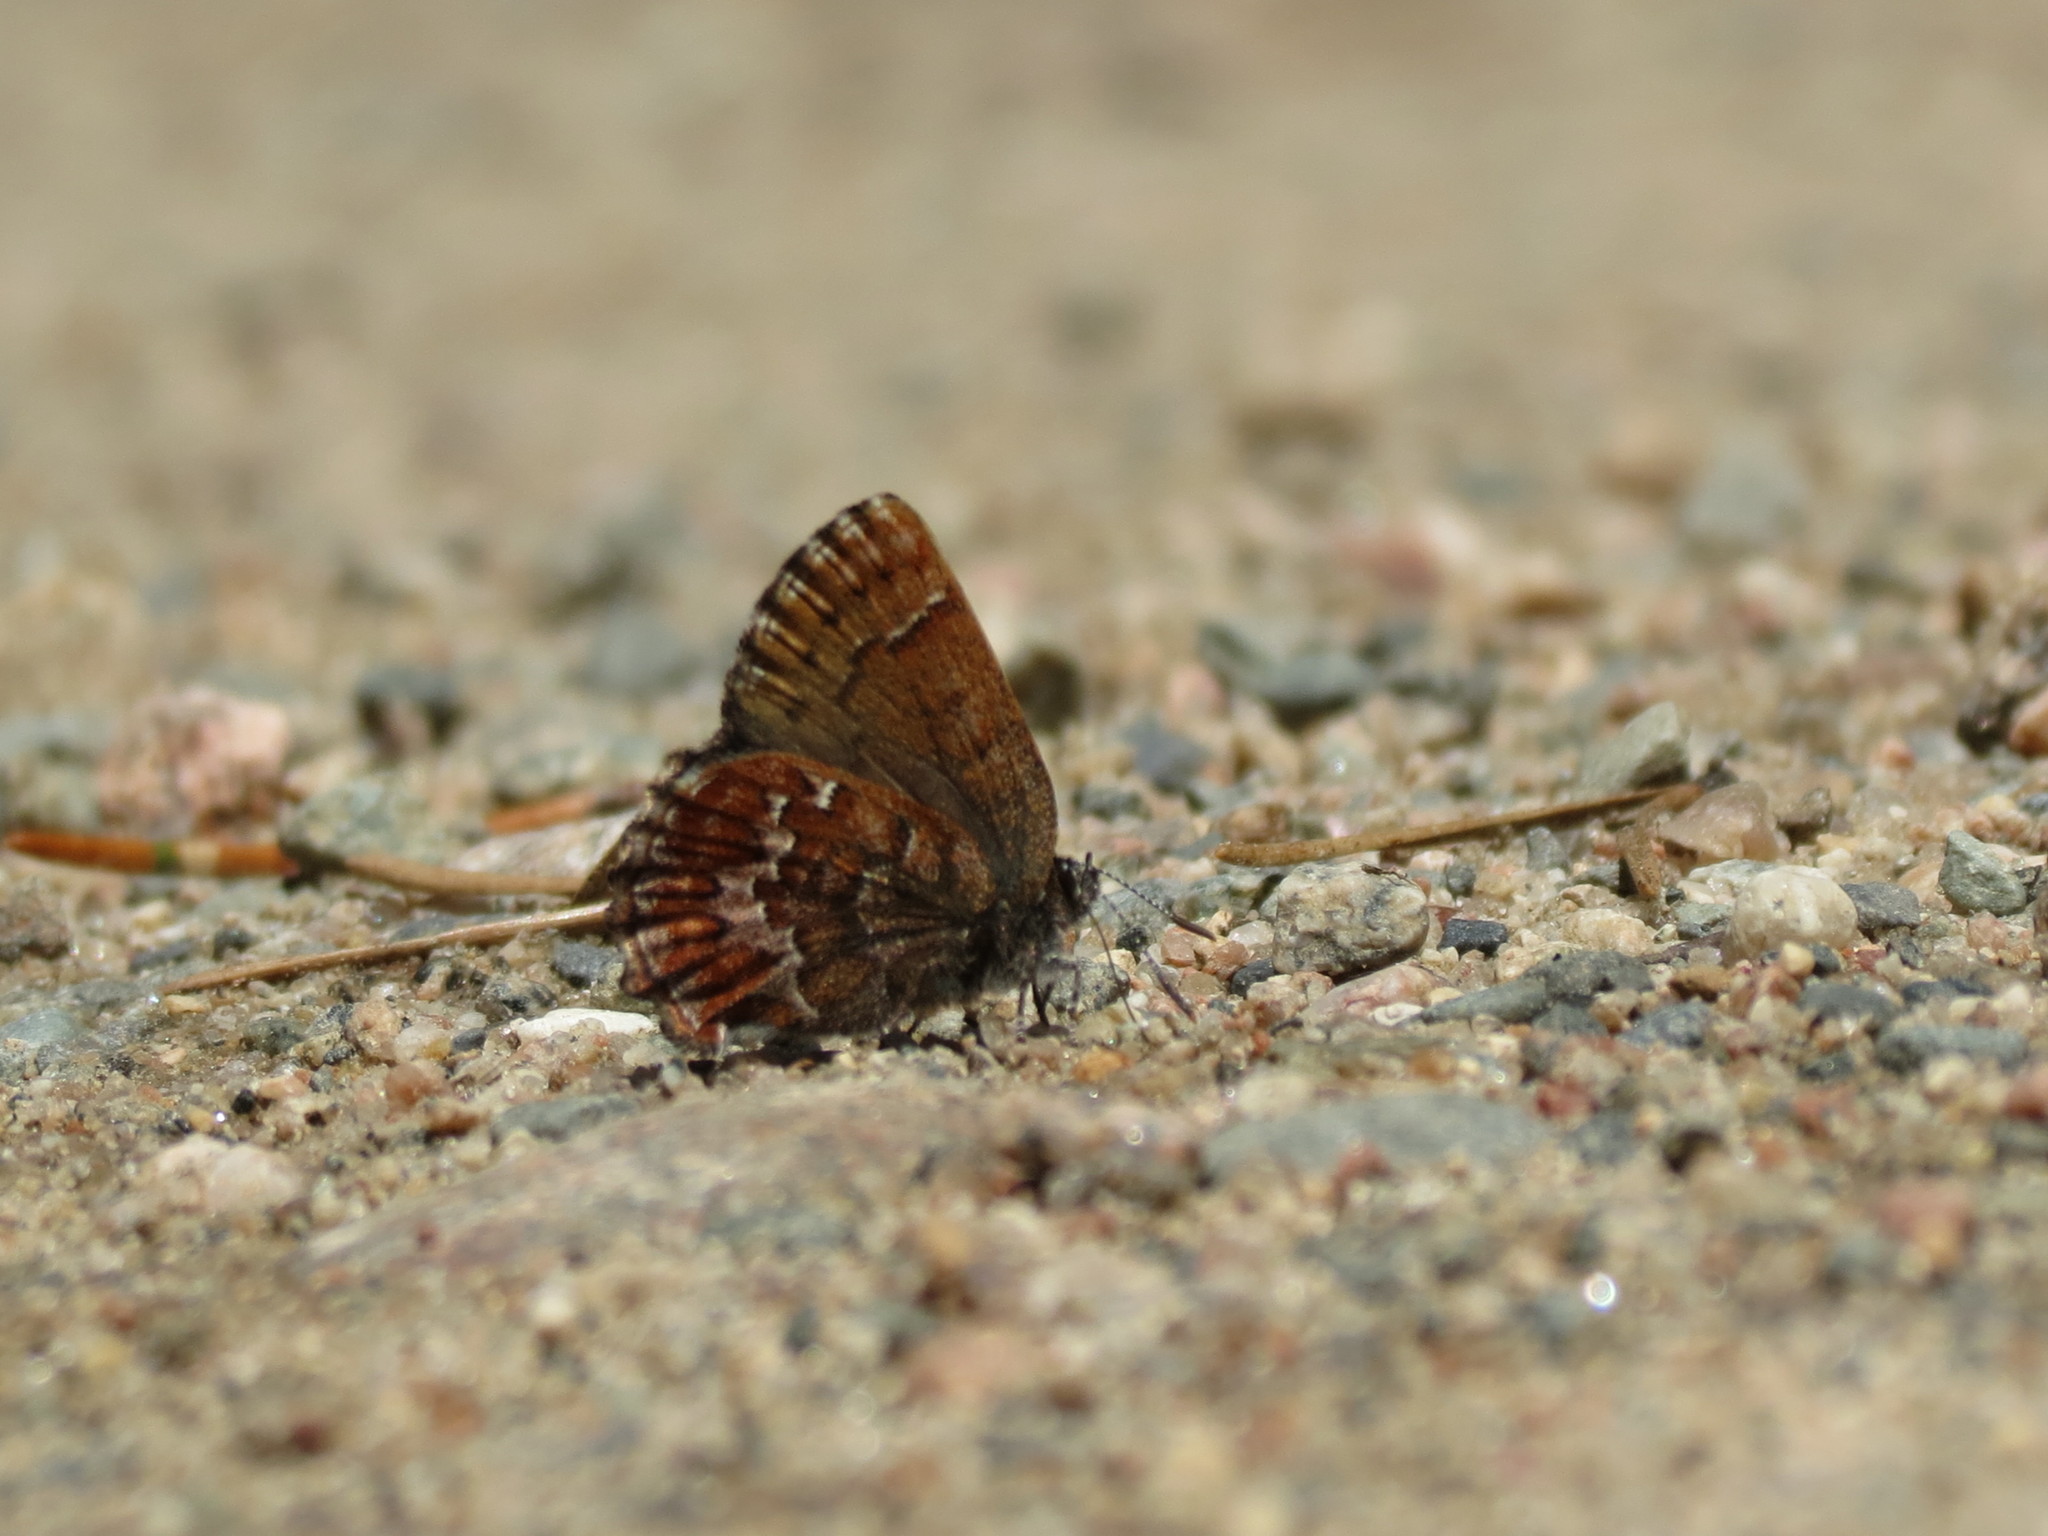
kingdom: Animalia
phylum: Arthropoda
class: Insecta
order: Lepidoptera
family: Lycaenidae
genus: Incisalia
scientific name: Incisalia niphon
